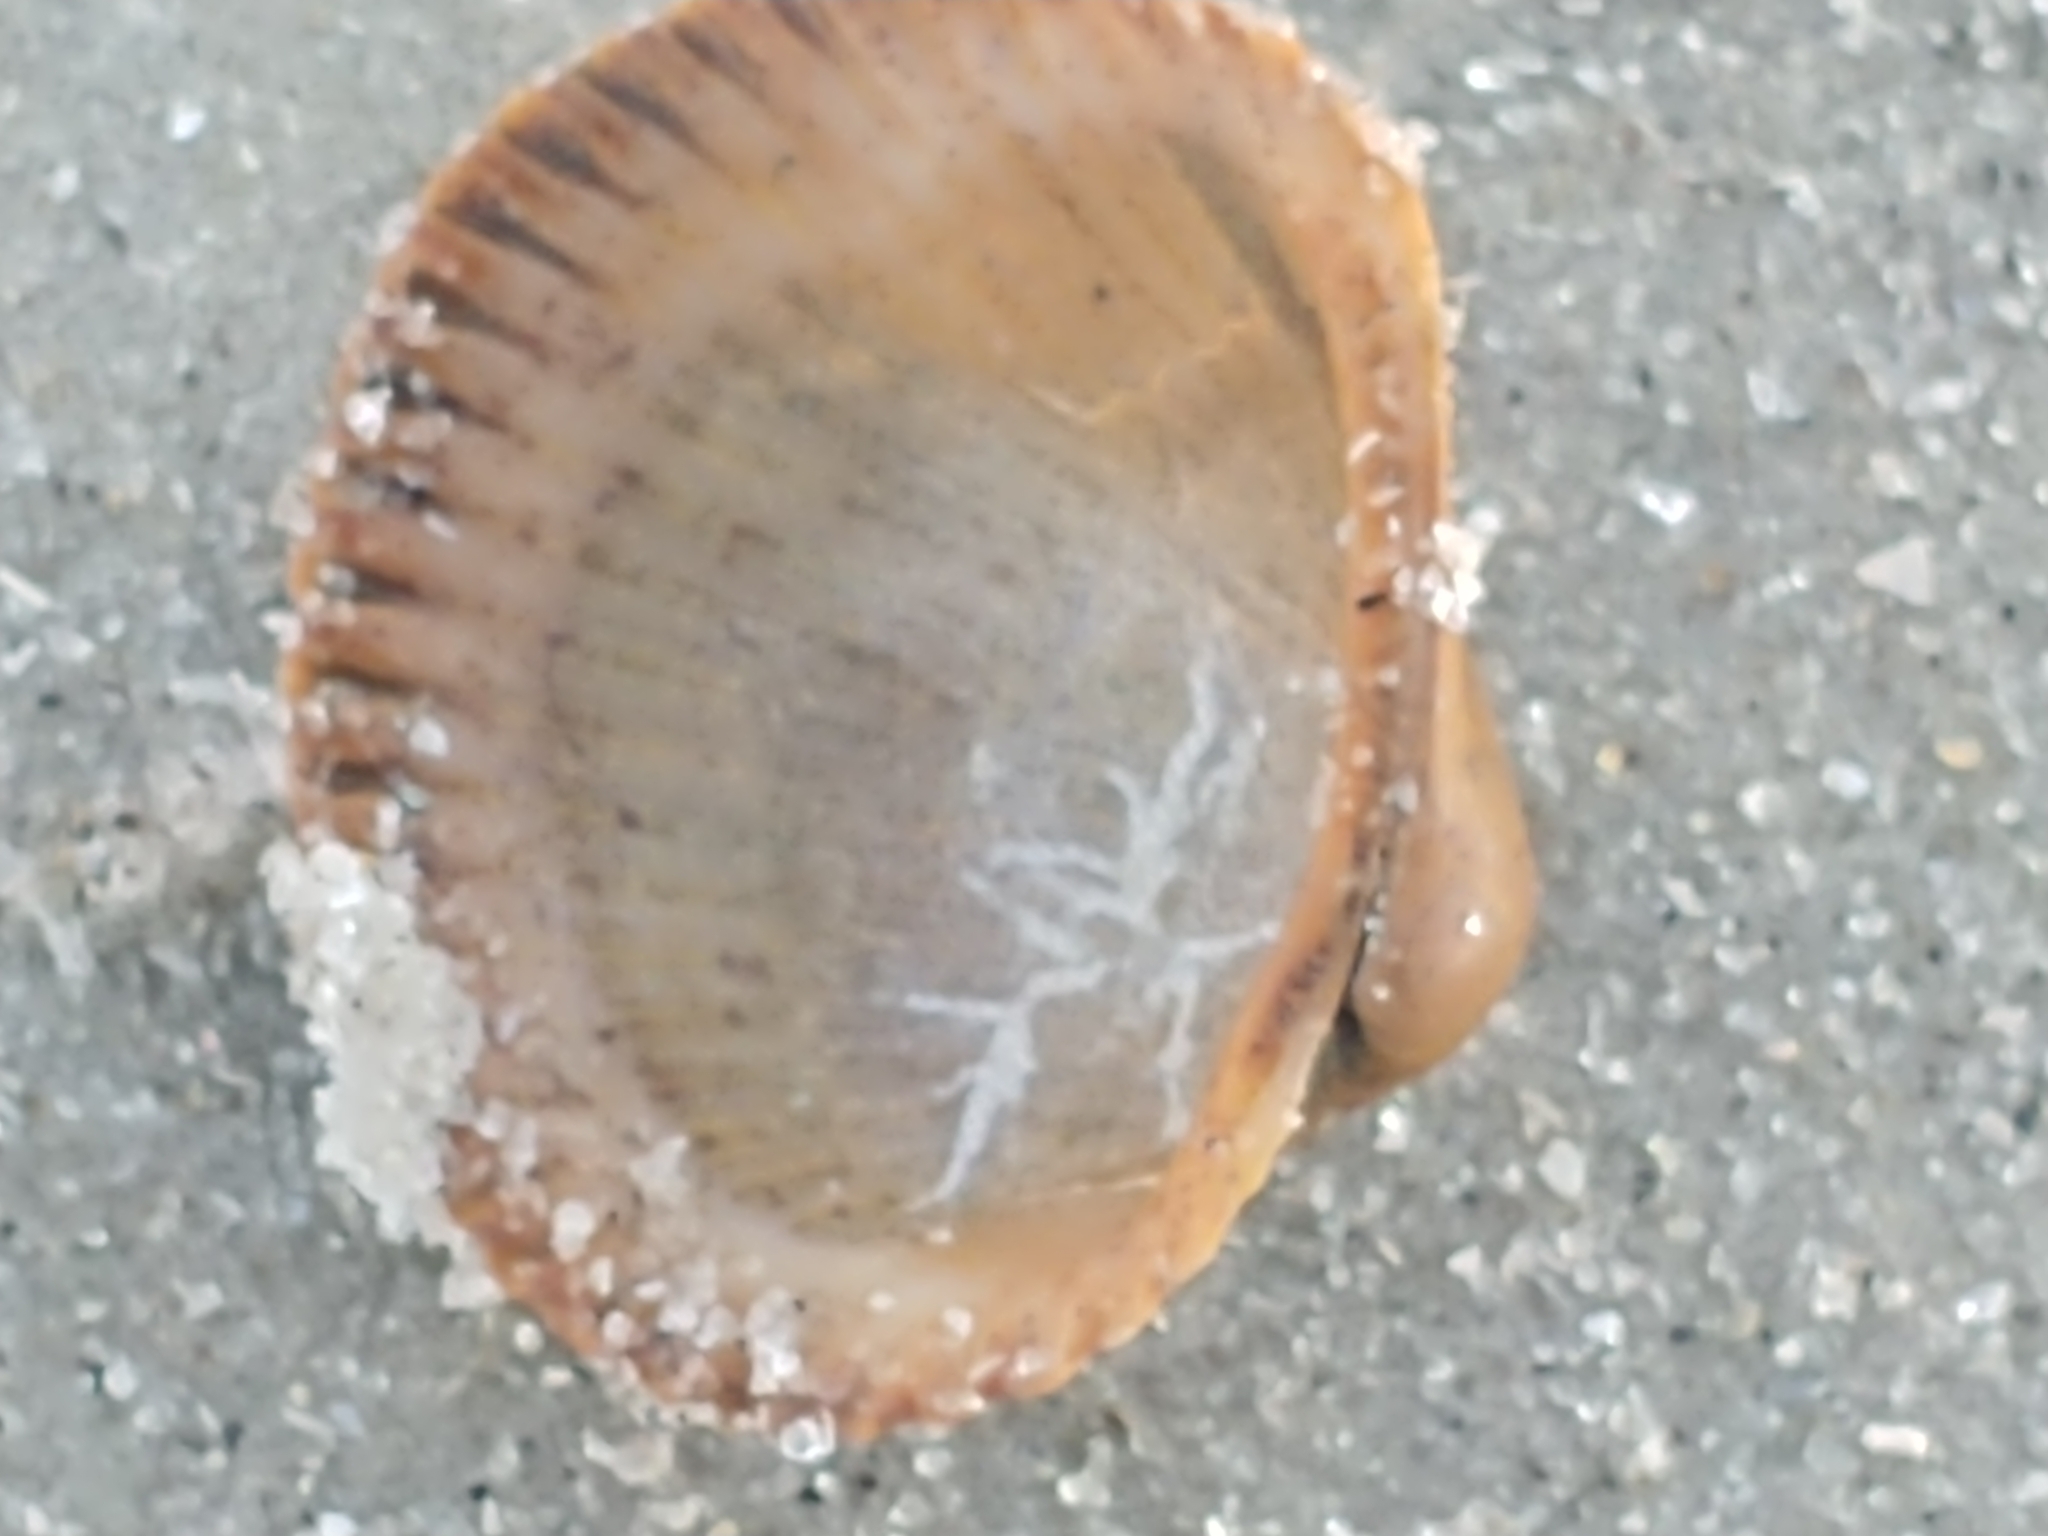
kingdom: Animalia
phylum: Mollusca
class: Bivalvia
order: Arcida
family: Arcidae
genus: Lunarca
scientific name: Lunarca ovalis
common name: Blood ark
